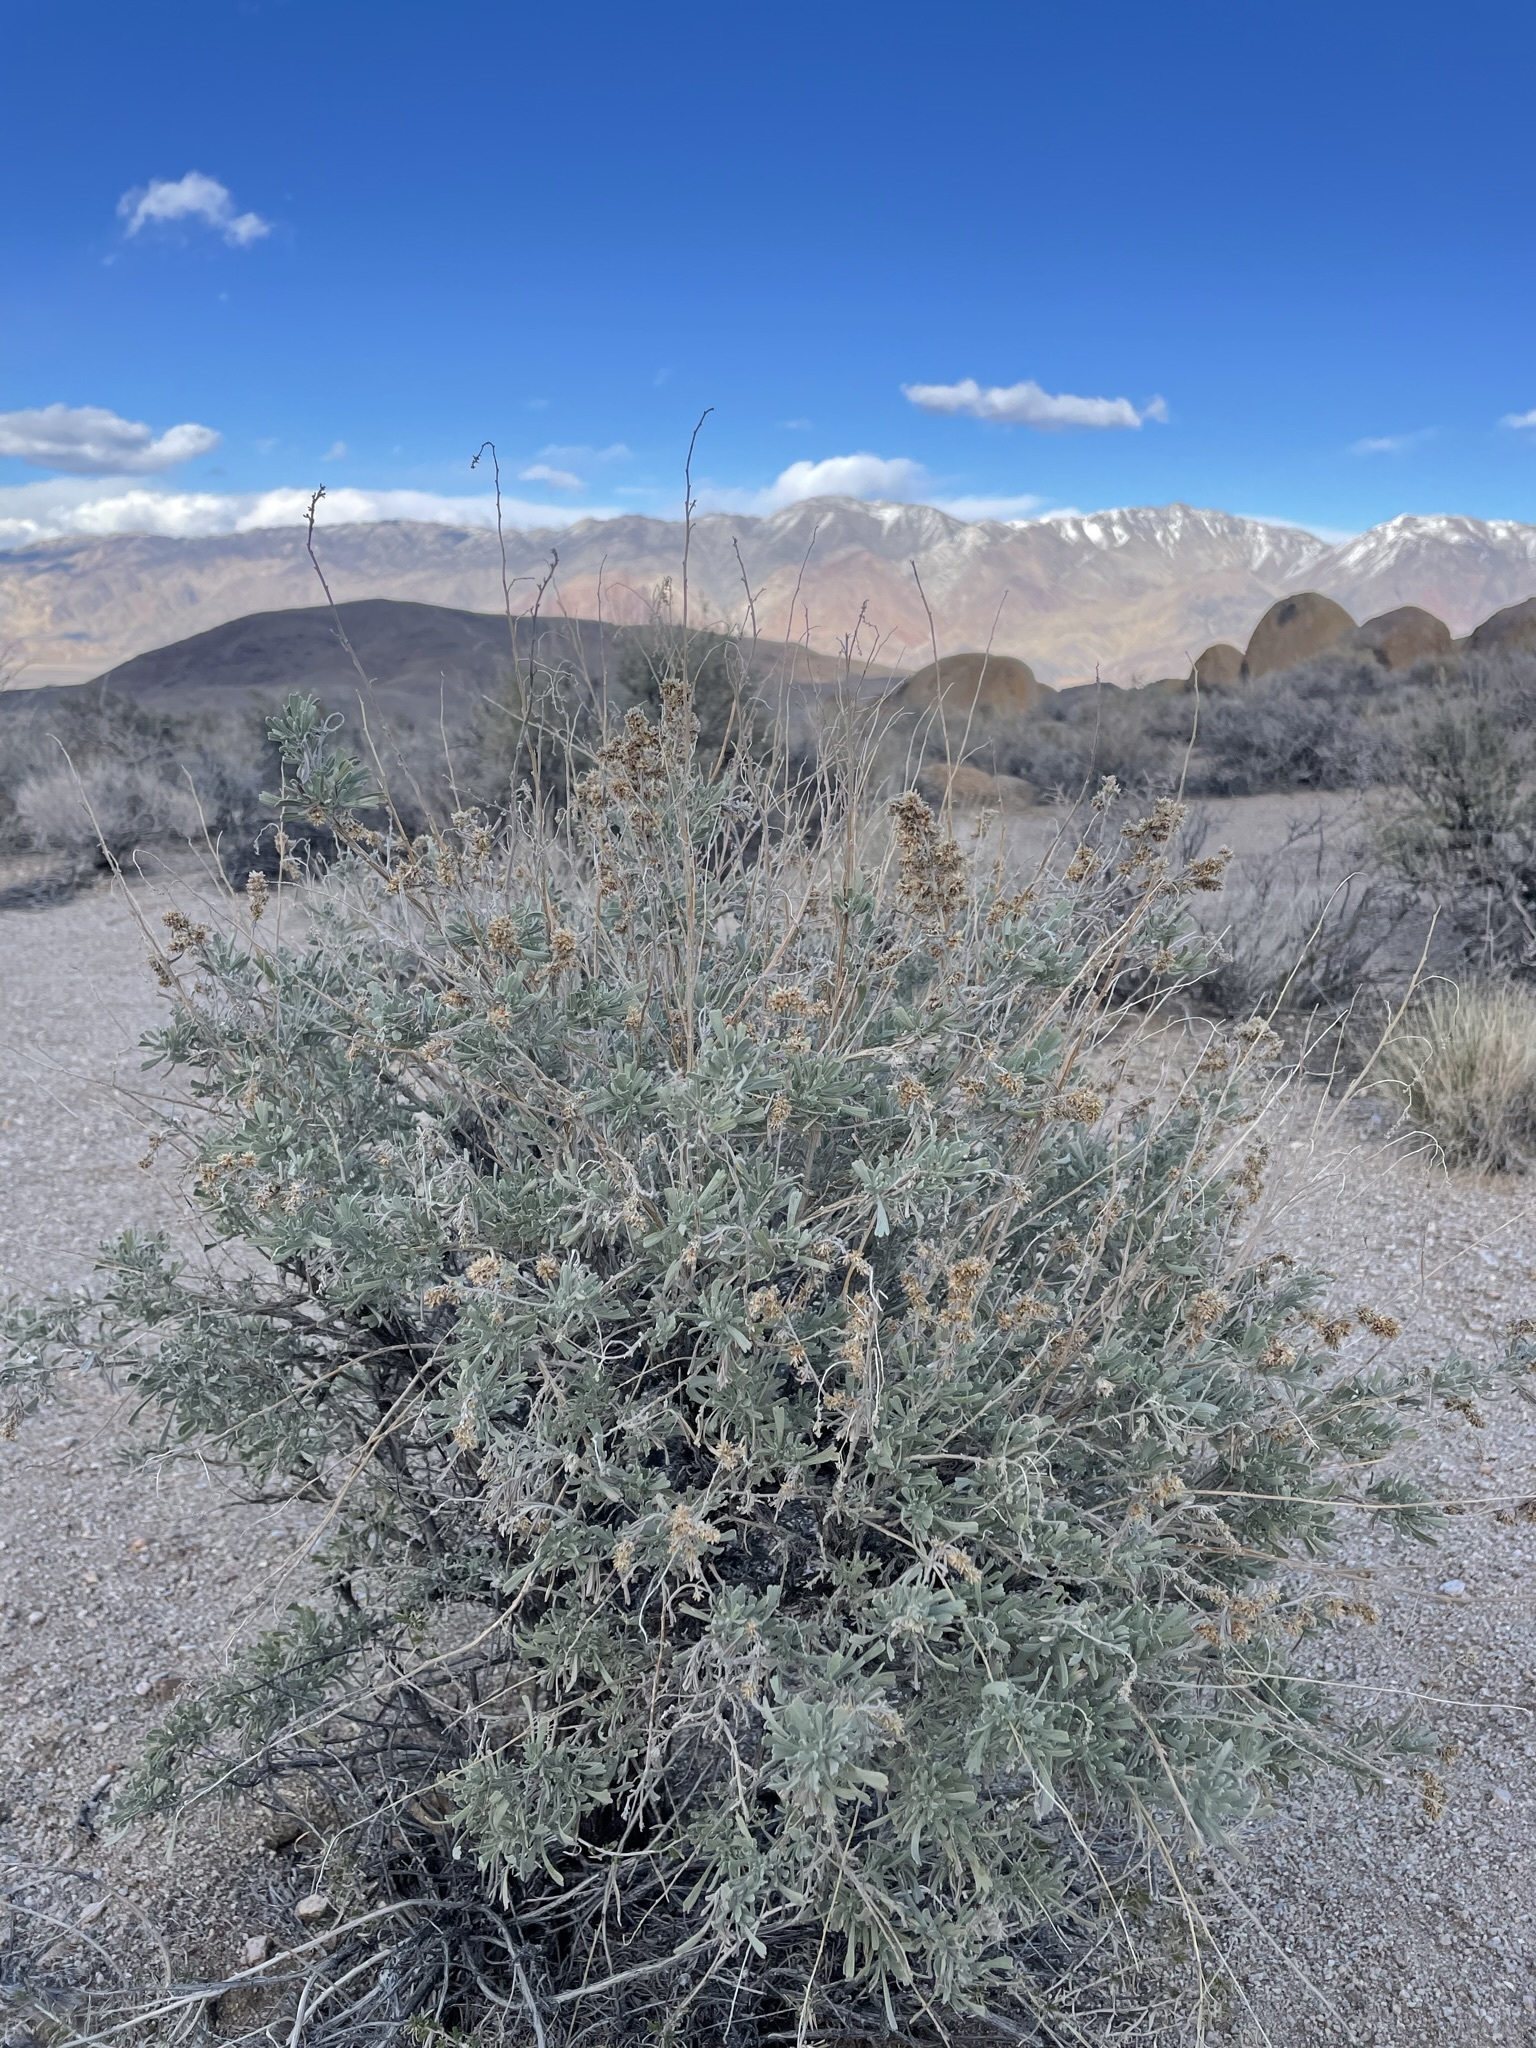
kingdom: Plantae
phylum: Tracheophyta
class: Magnoliopsida
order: Asterales
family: Asteraceae
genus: Artemisia
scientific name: Artemisia tridentata
